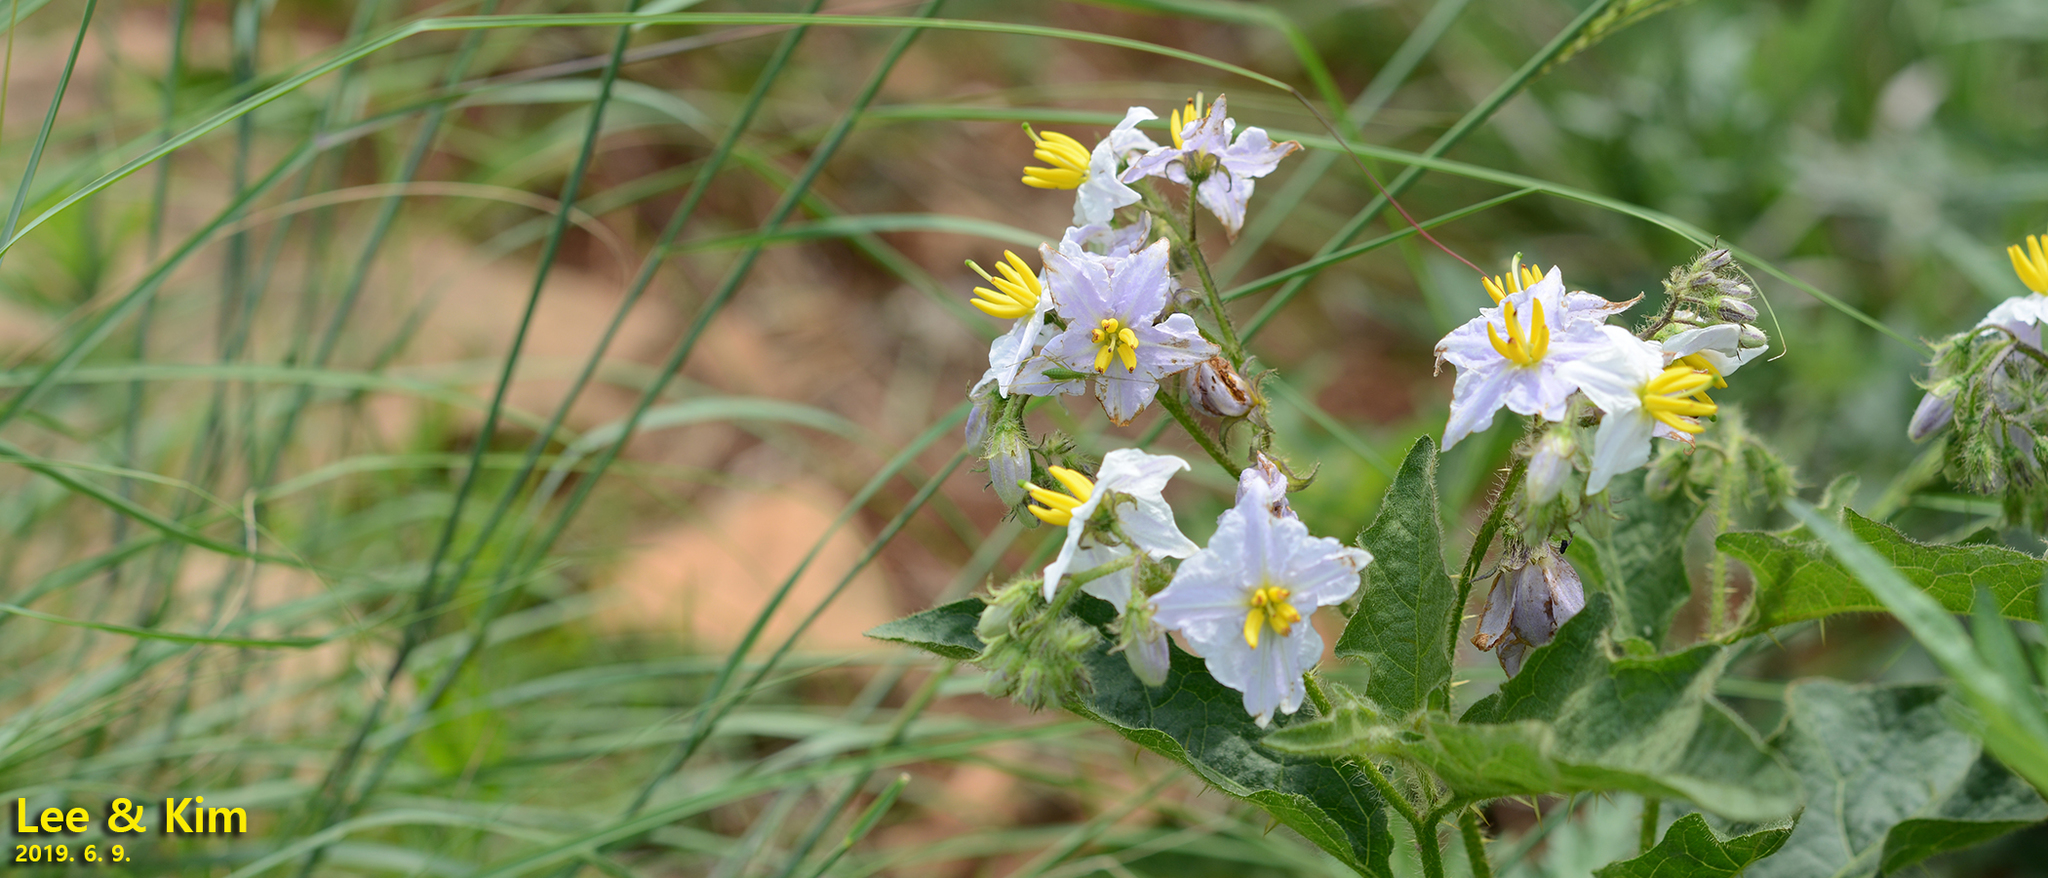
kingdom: Plantae
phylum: Tracheophyta
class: Magnoliopsida
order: Solanales
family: Solanaceae
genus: Solanum
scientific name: Solanum carolinense
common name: Horse-nettle
